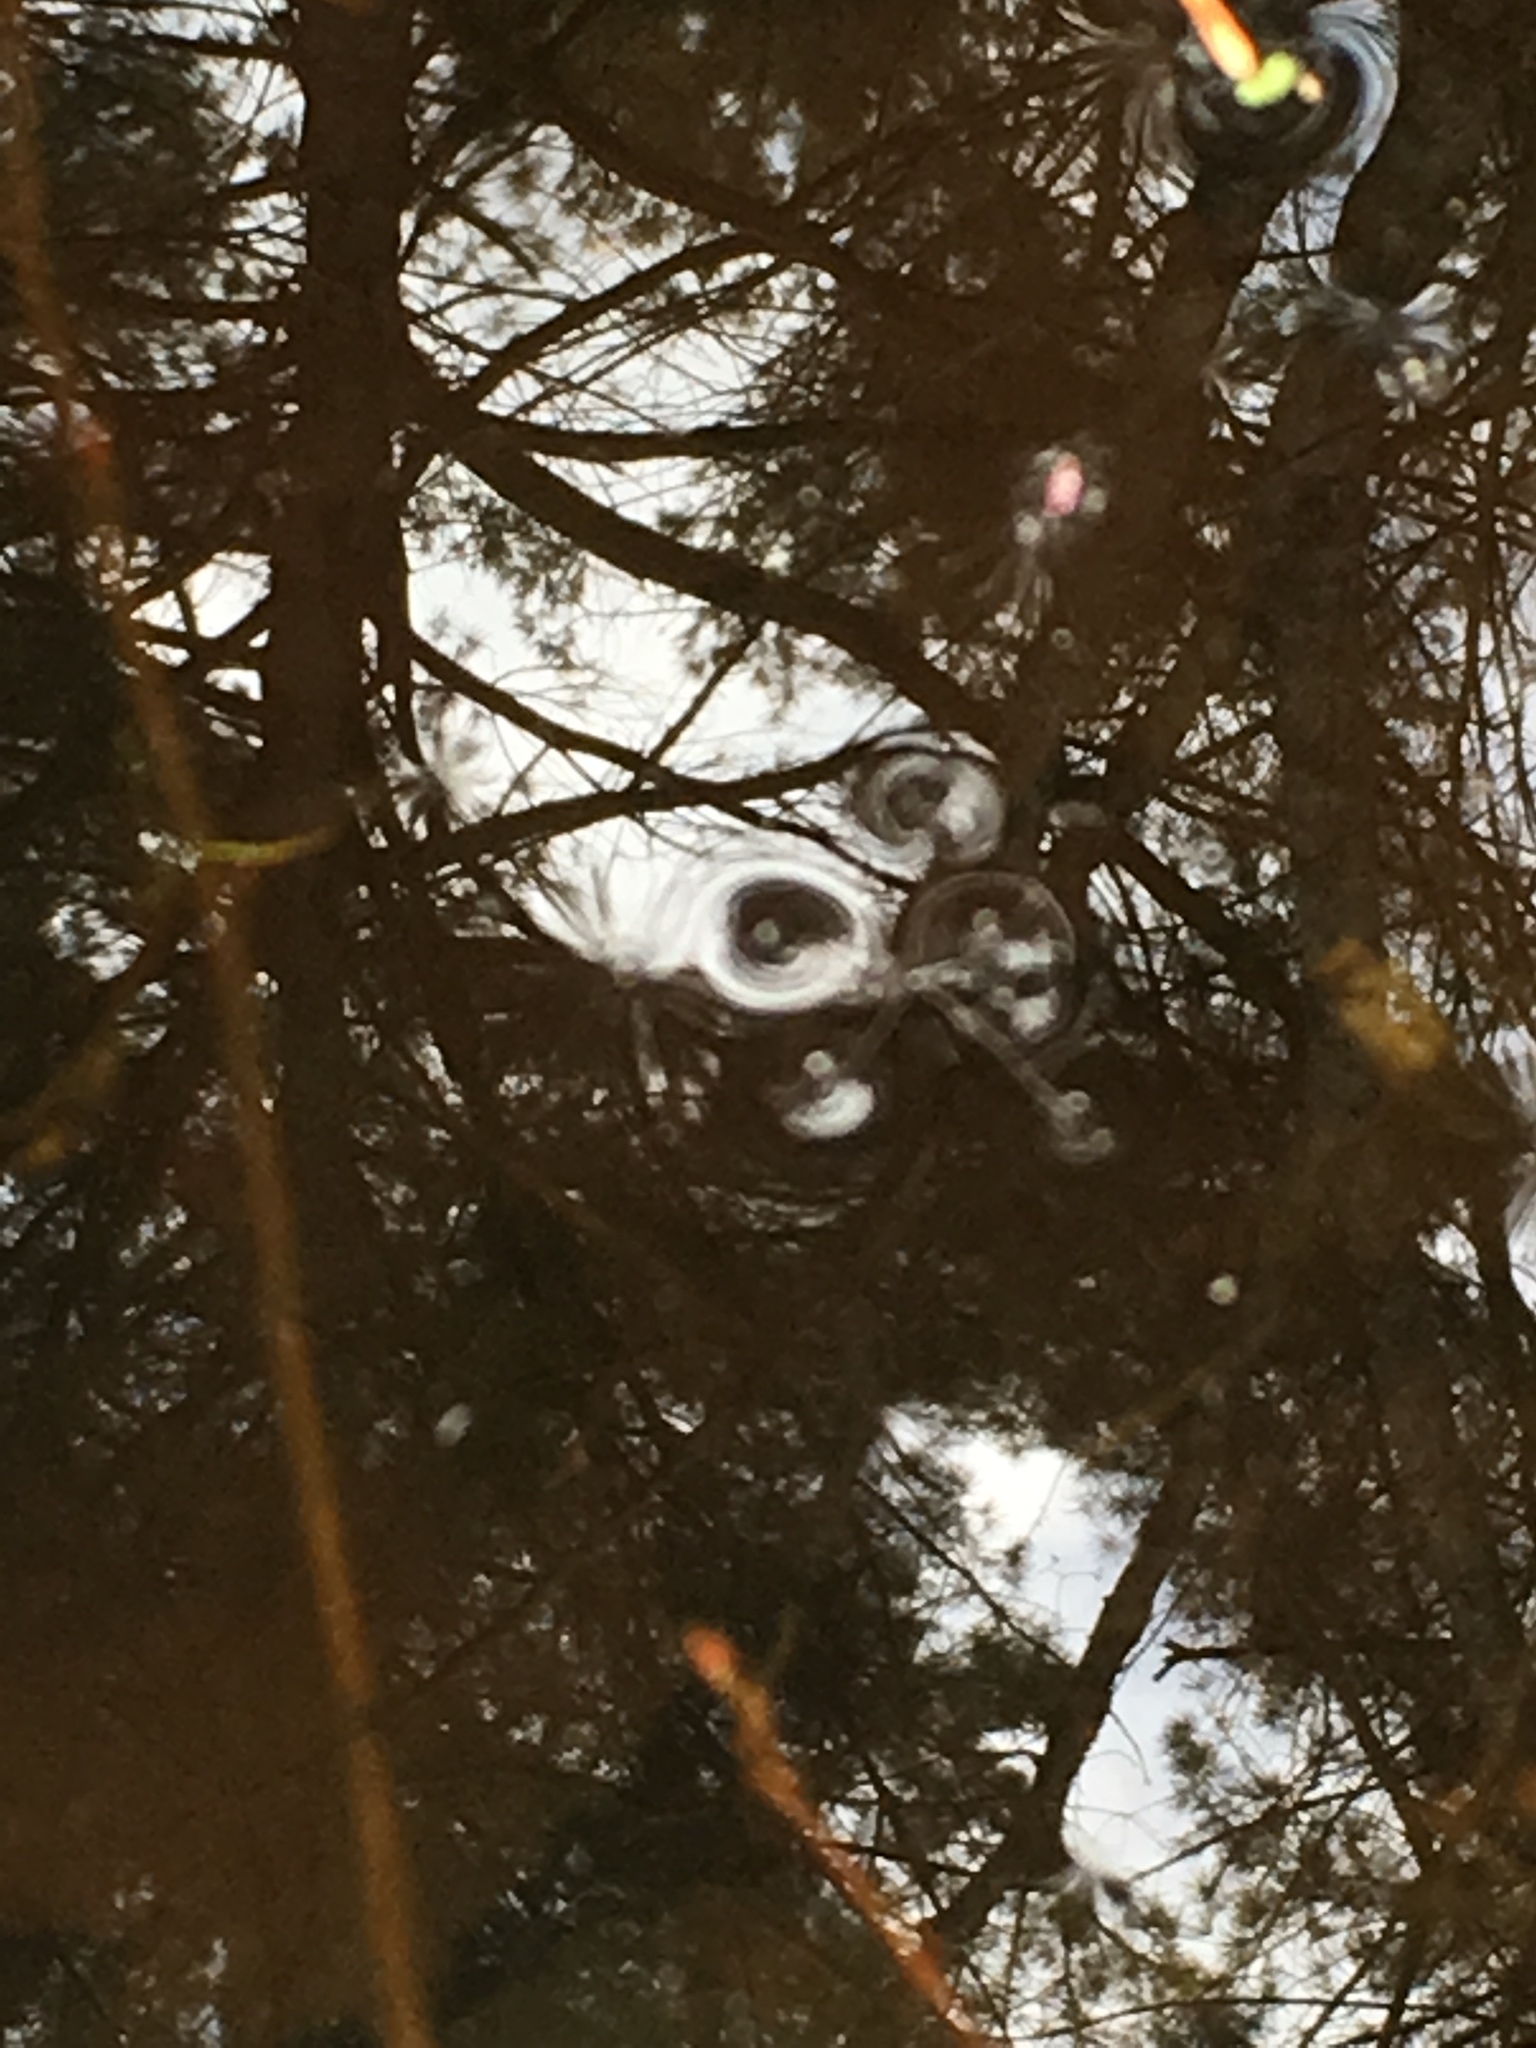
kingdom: Animalia
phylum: Arthropoda
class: Insecta
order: Hemiptera
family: Gerridae
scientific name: Gerridae
